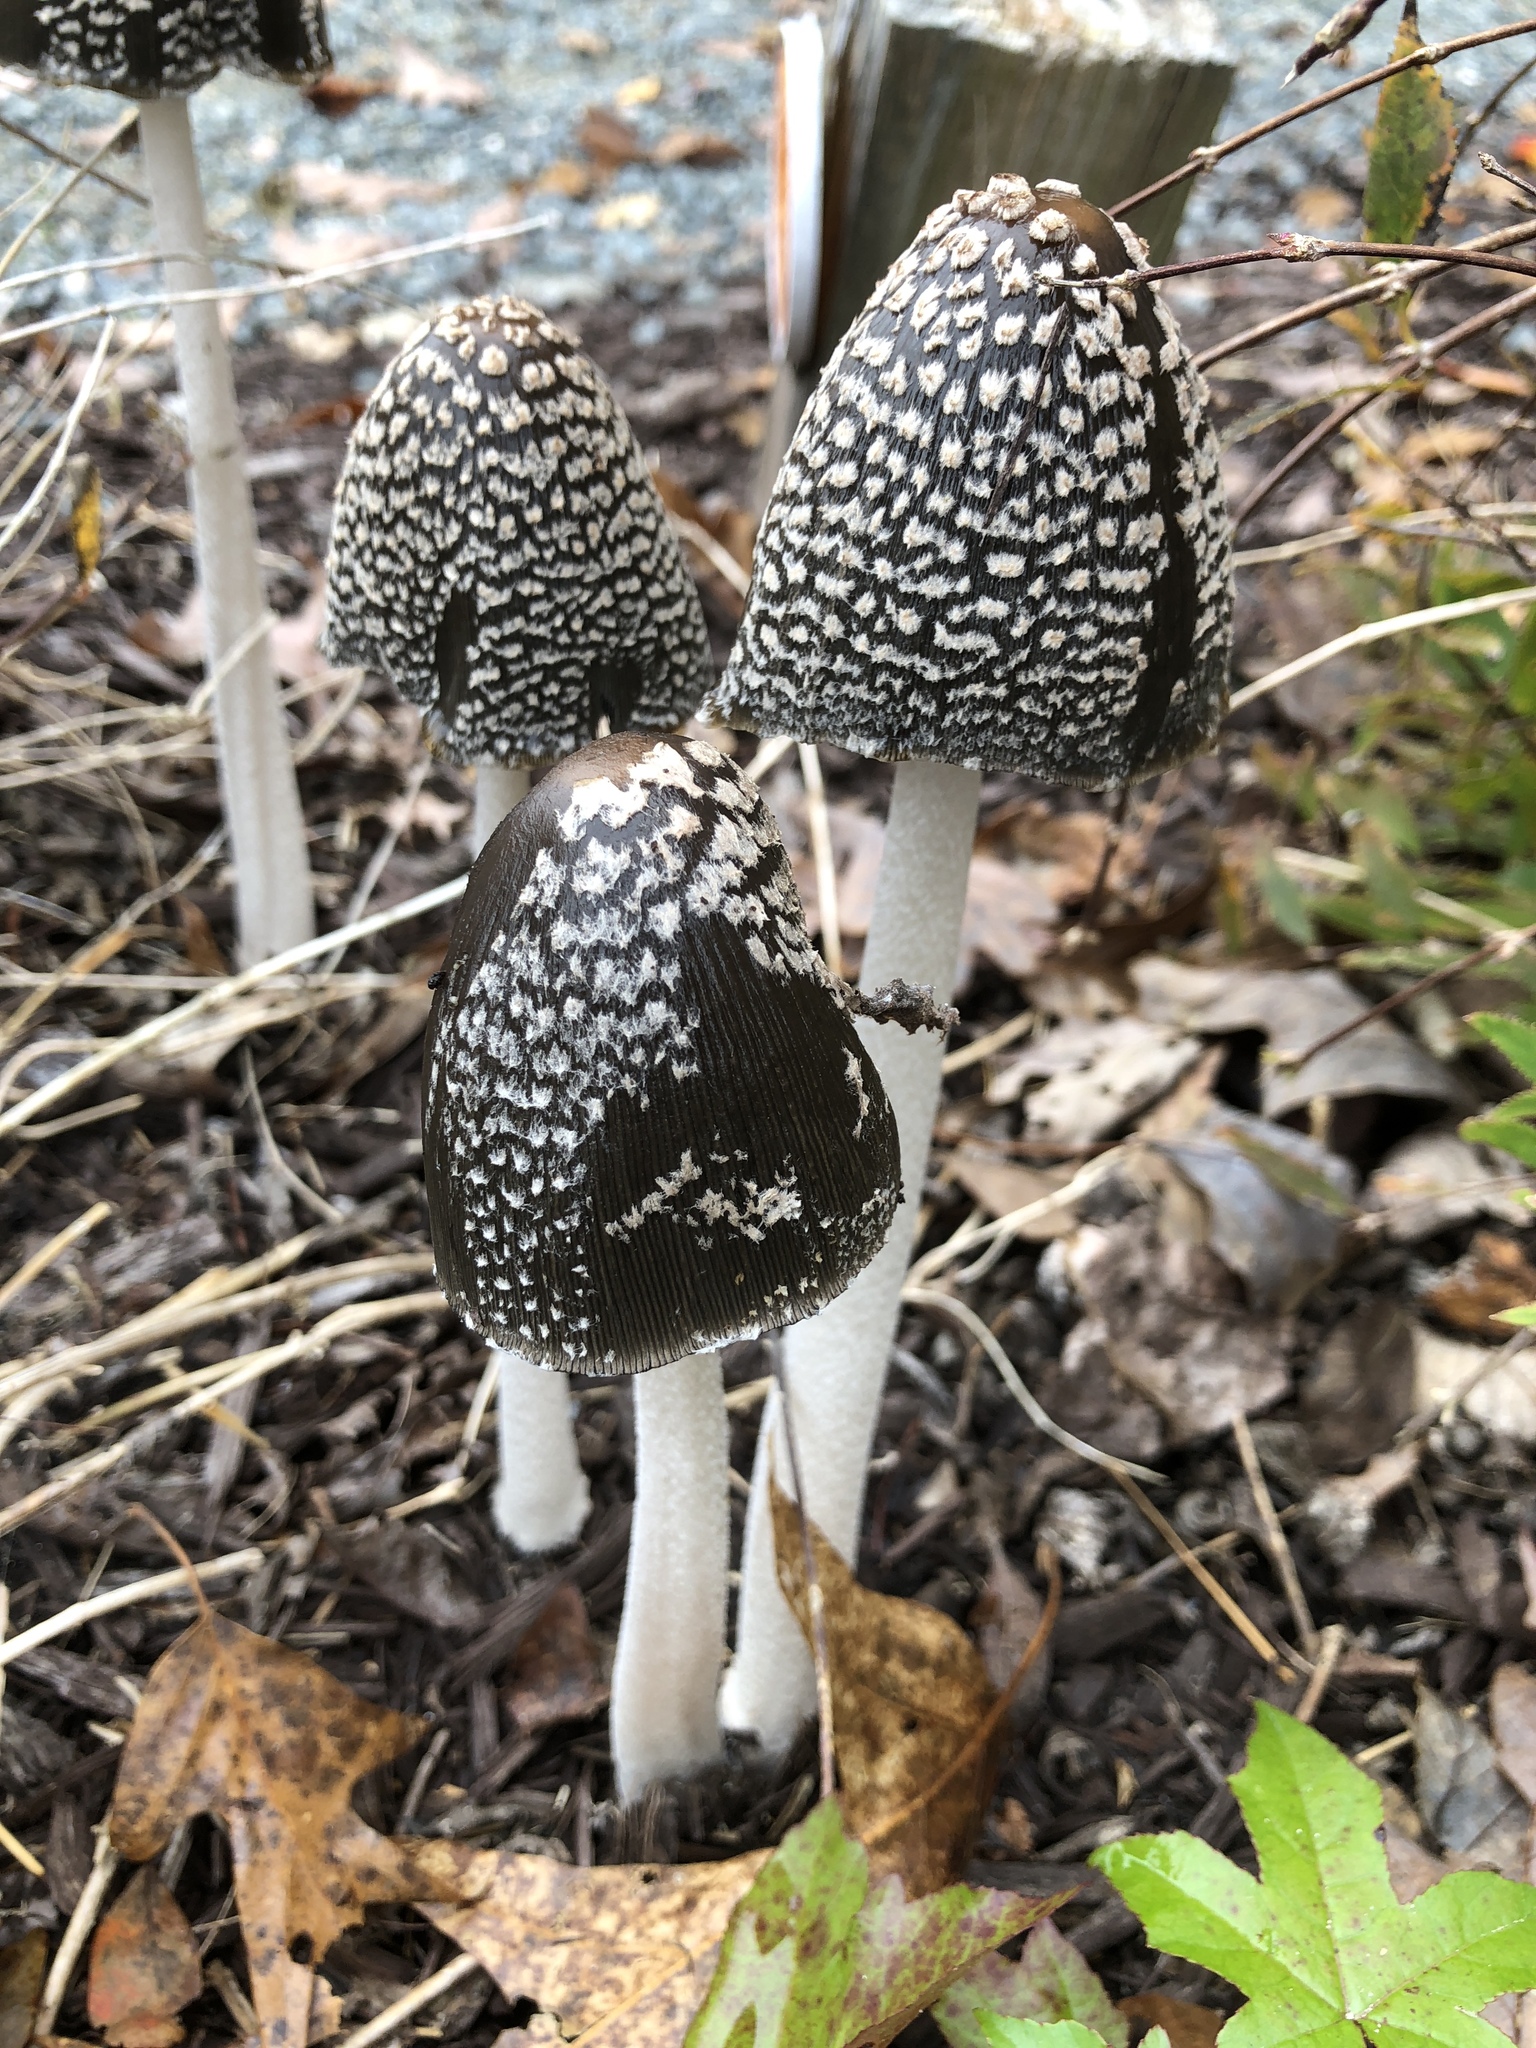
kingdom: Fungi
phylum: Basidiomycota
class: Agaricomycetes
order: Agaricales
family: Psathyrellaceae
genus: Coprinopsis
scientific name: Coprinopsis picacea
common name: Magpie inkcap
